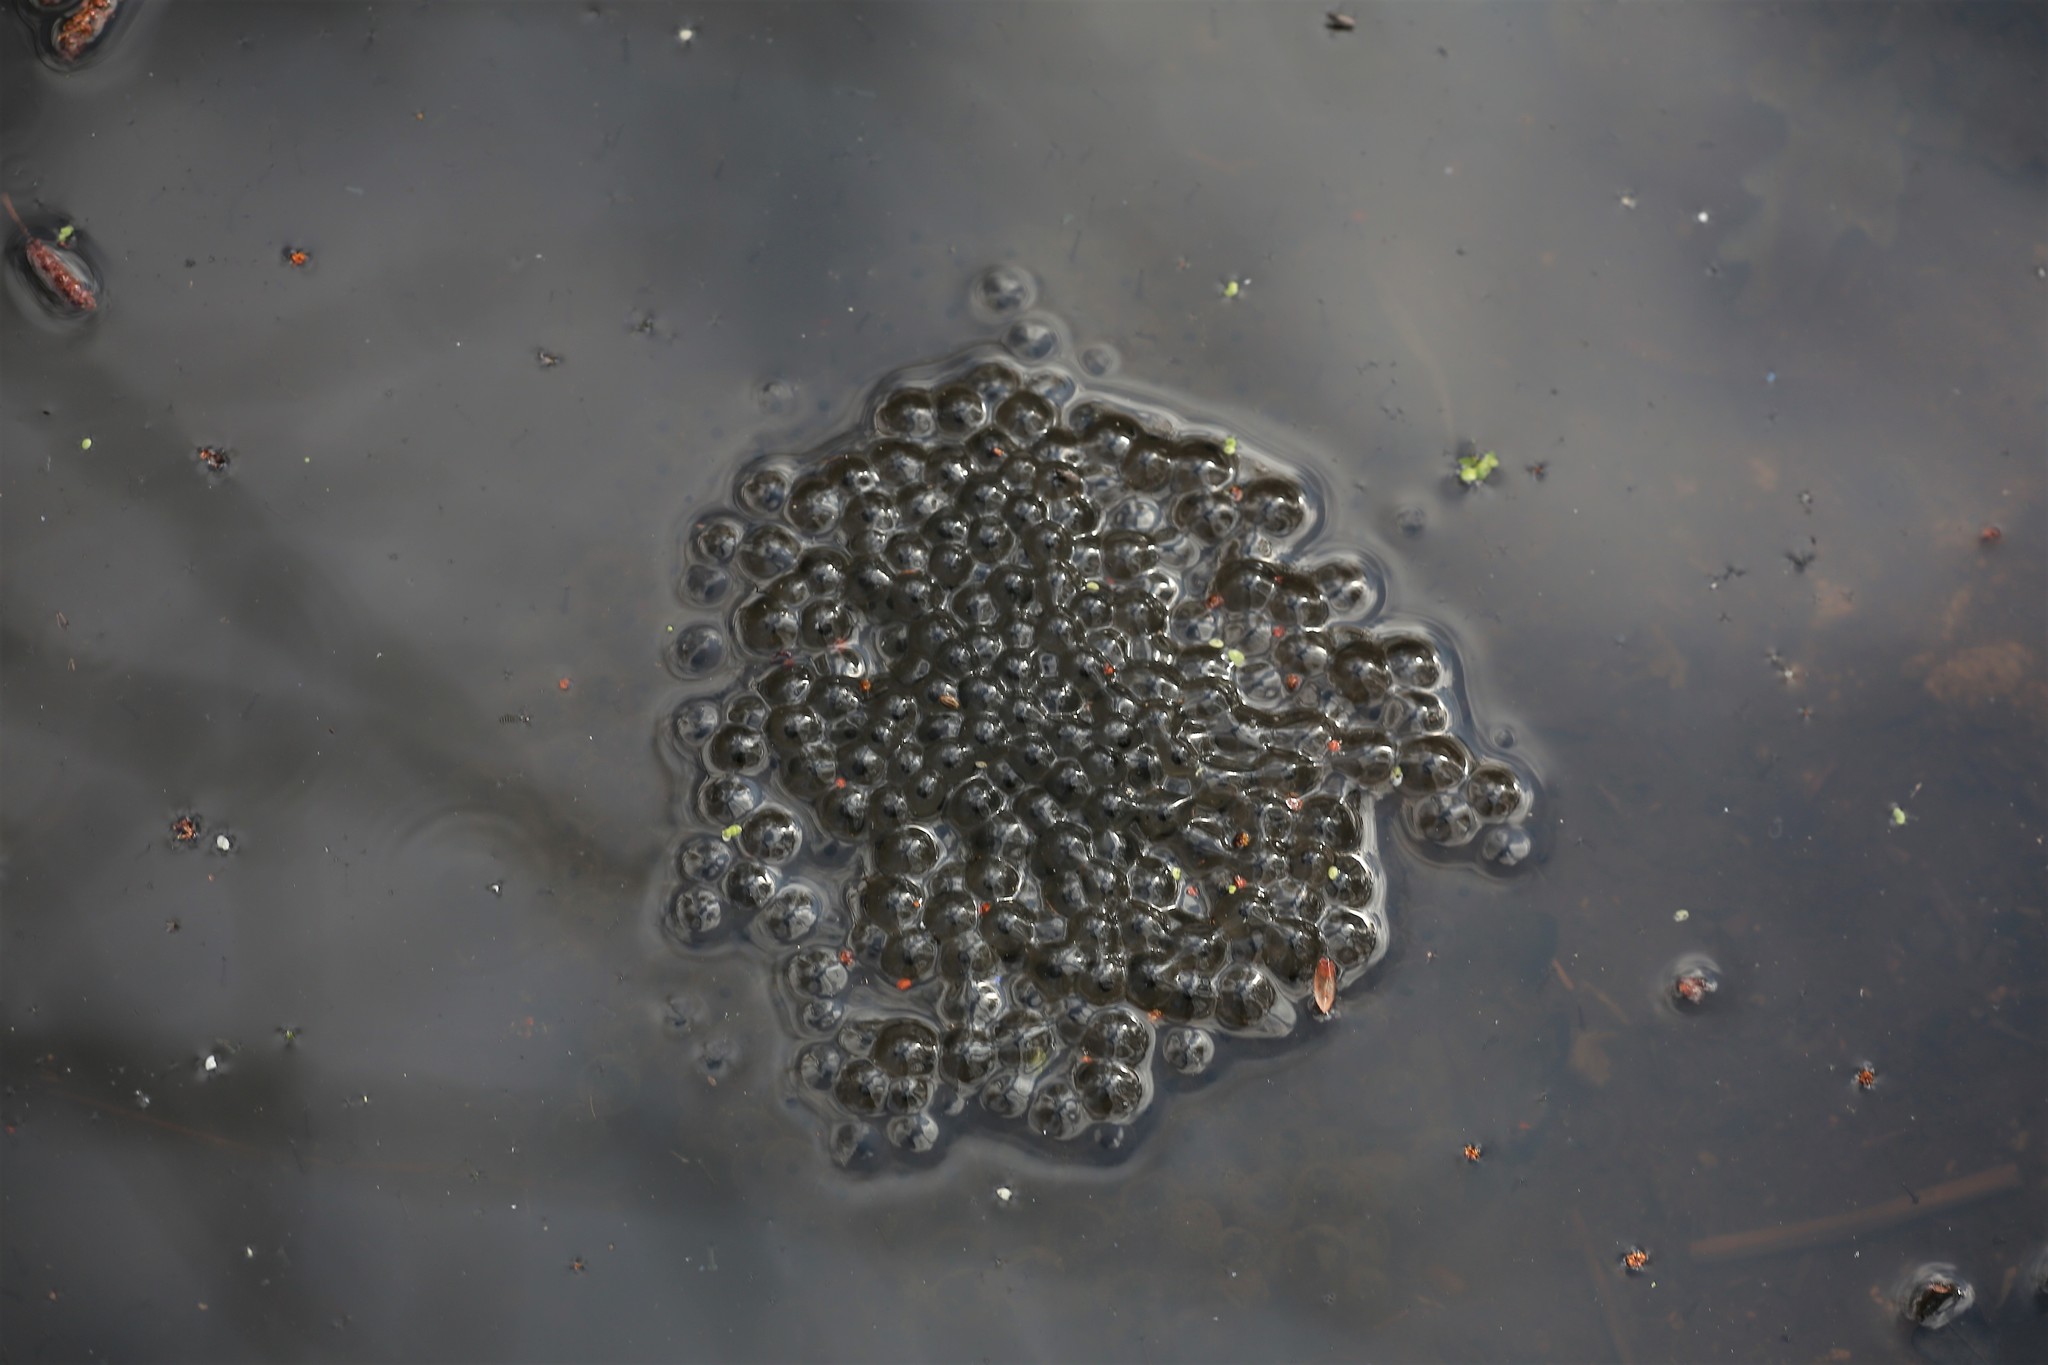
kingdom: Animalia
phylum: Chordata
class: Amphibia
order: Anura
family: Ranidae
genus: Rana
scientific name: Rana temporaria
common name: Common frog
